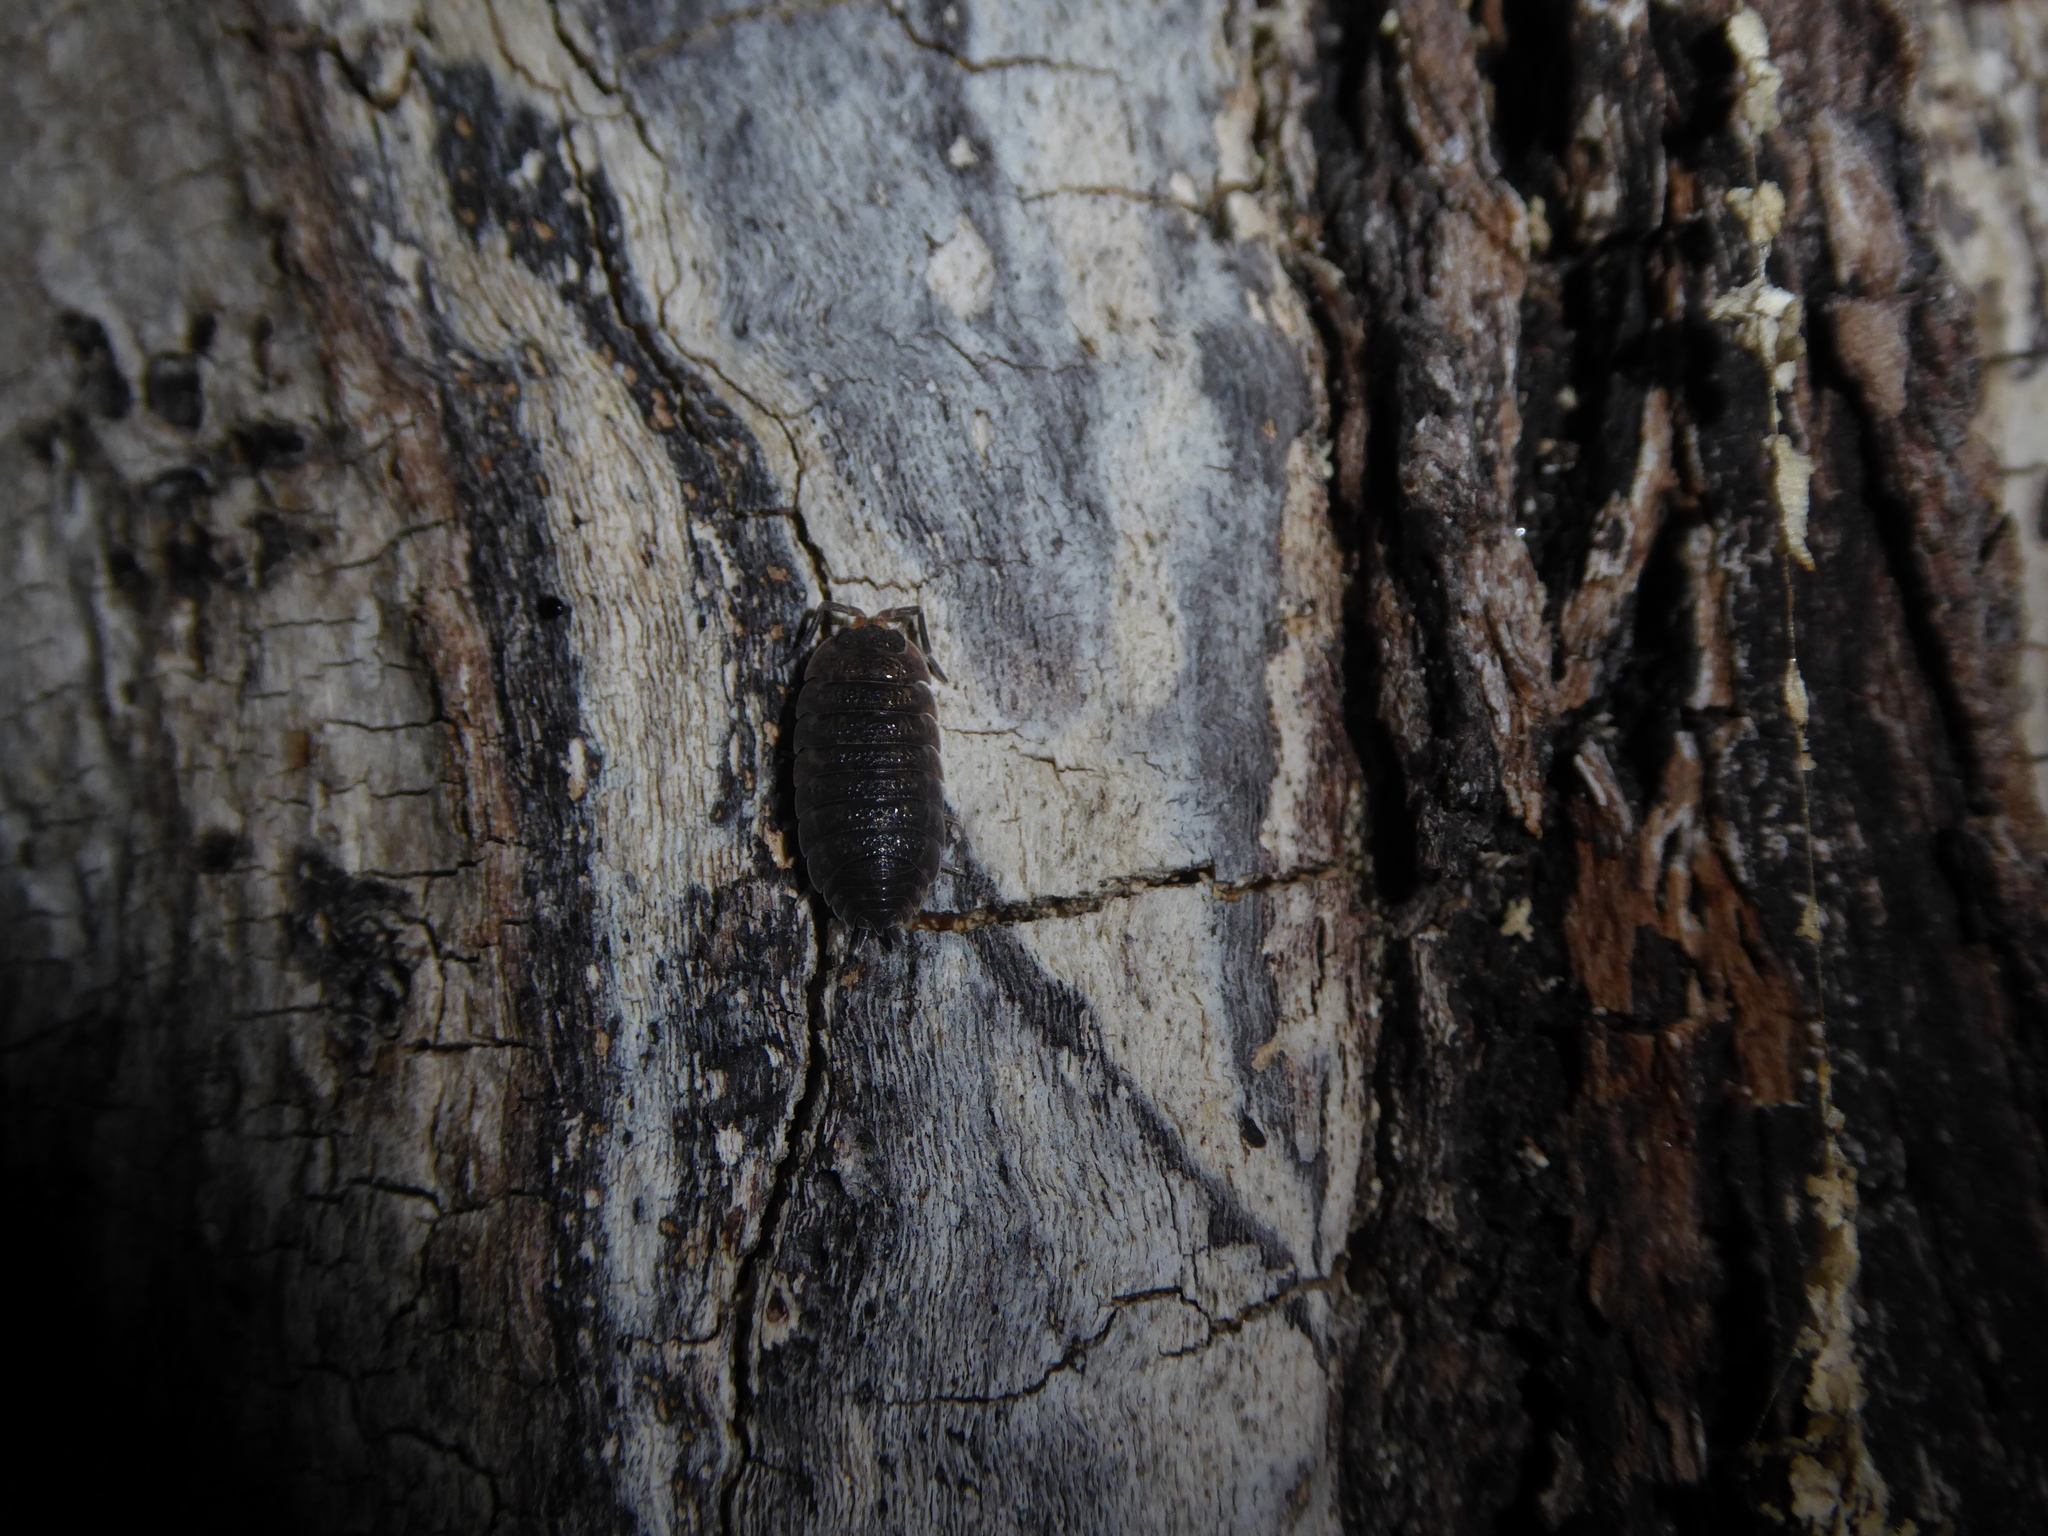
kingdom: Animalia
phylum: Arthropoda
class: Malacostraca
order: Isopoda
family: Porcellionidae
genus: Porcellio
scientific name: Porcellio scaber
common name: Common rough woodlouse
